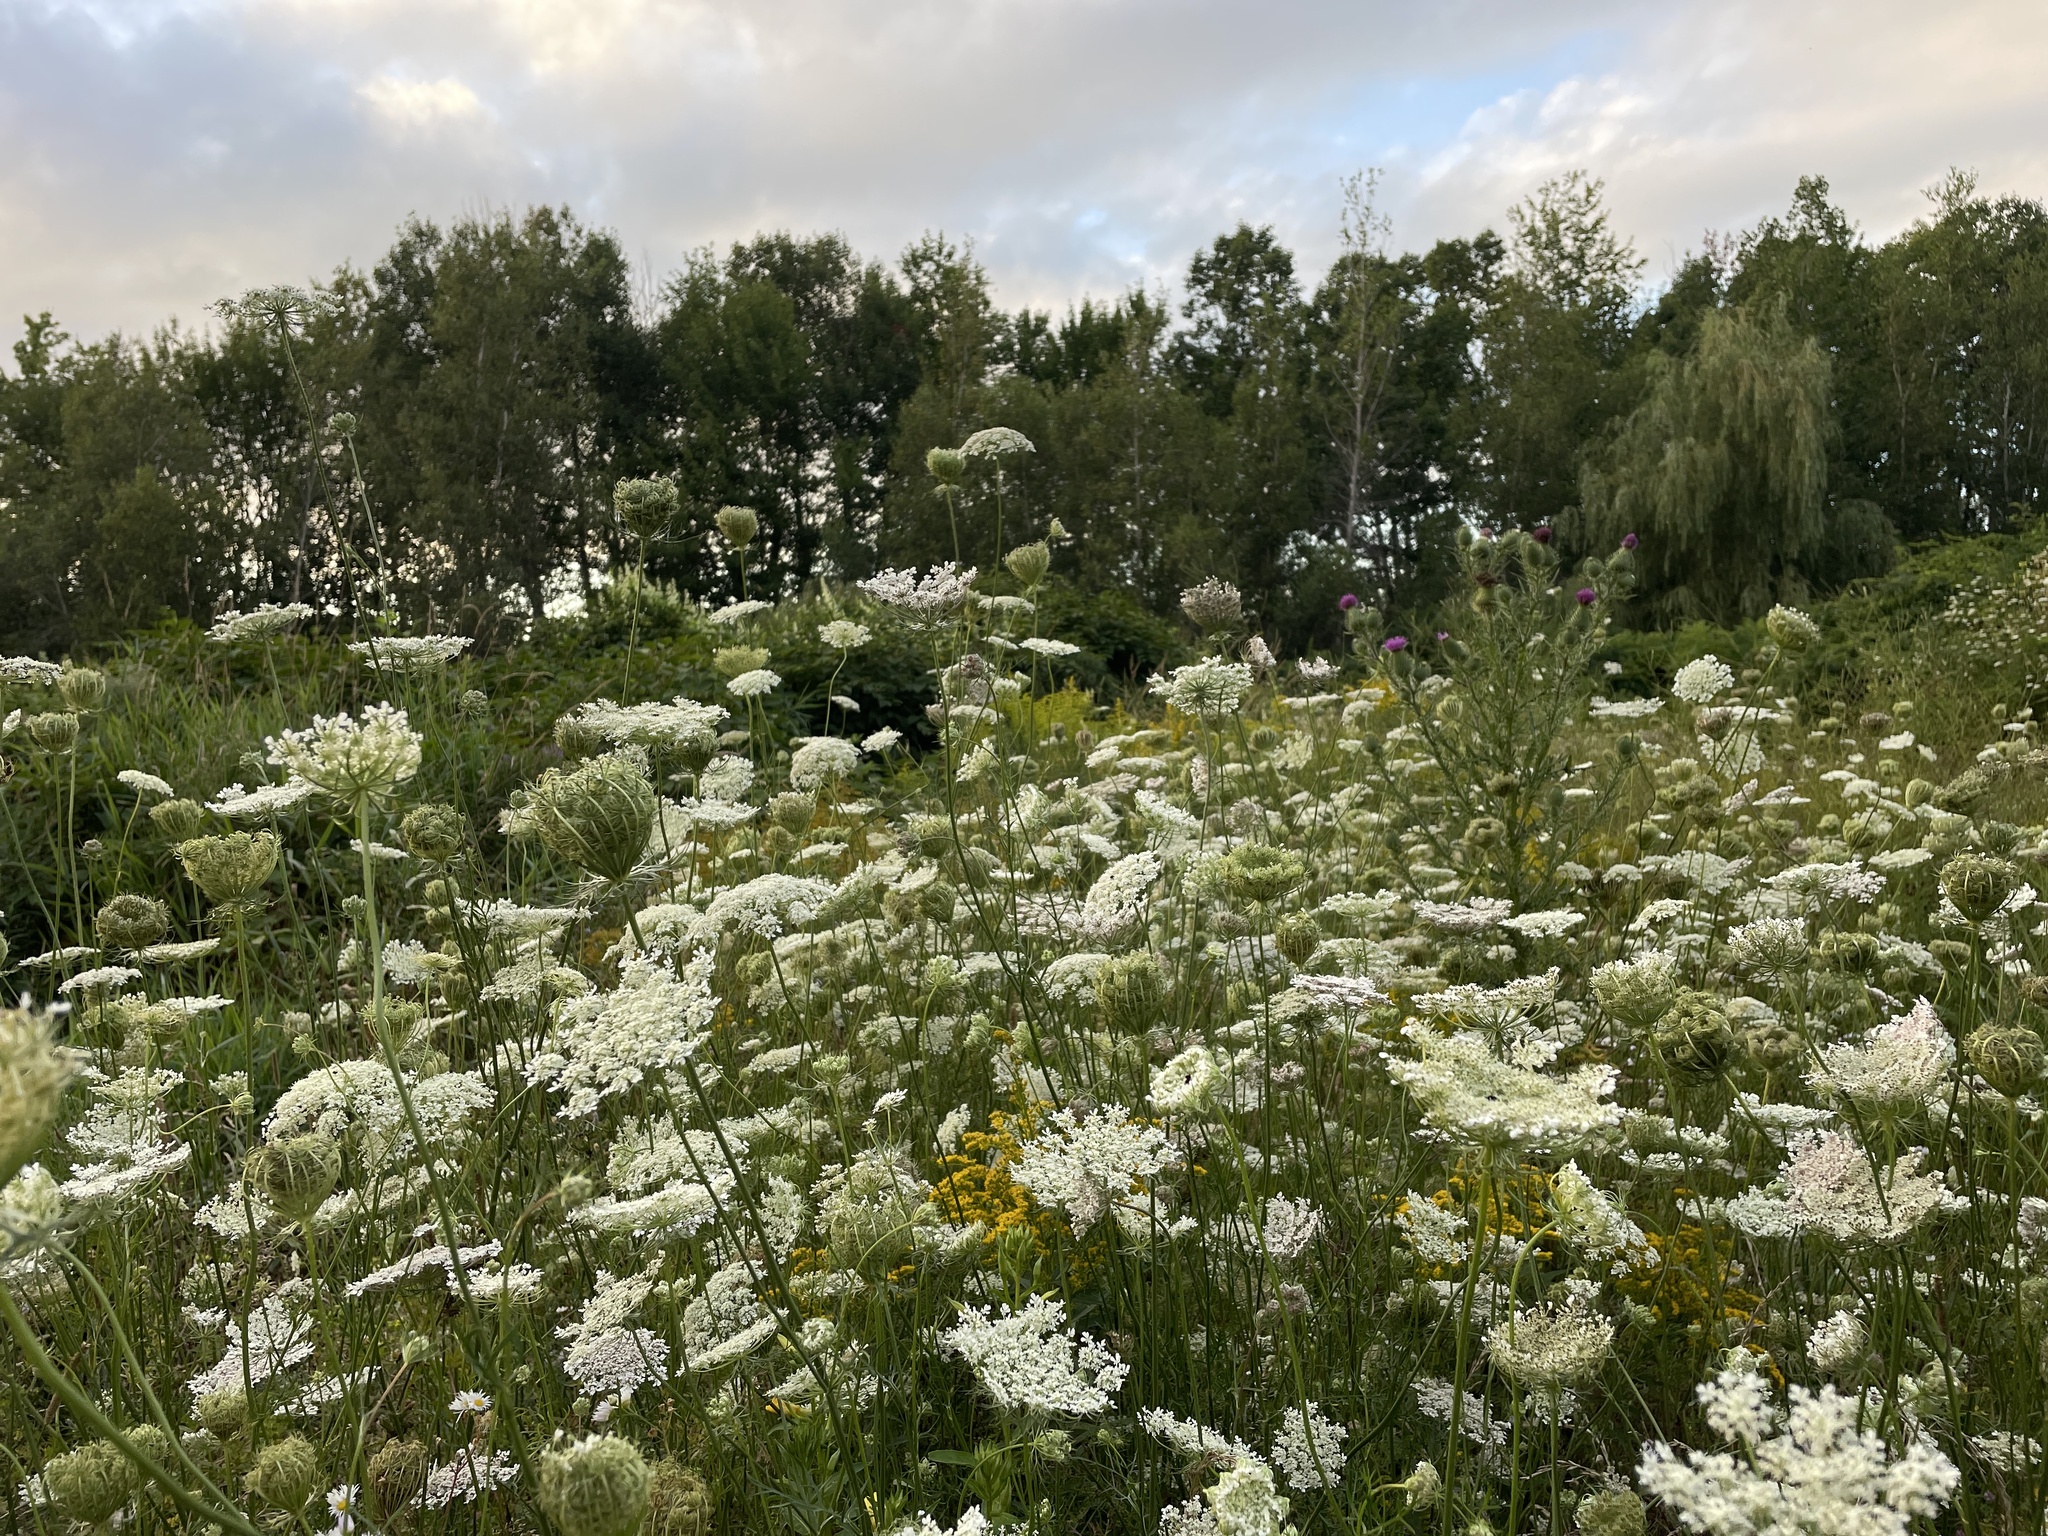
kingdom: Plantae
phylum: Tracheophyta
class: Magnoliopsida
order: Apiales
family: Apiaceae
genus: Daucus
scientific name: Daucus carota
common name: Wild carrot
